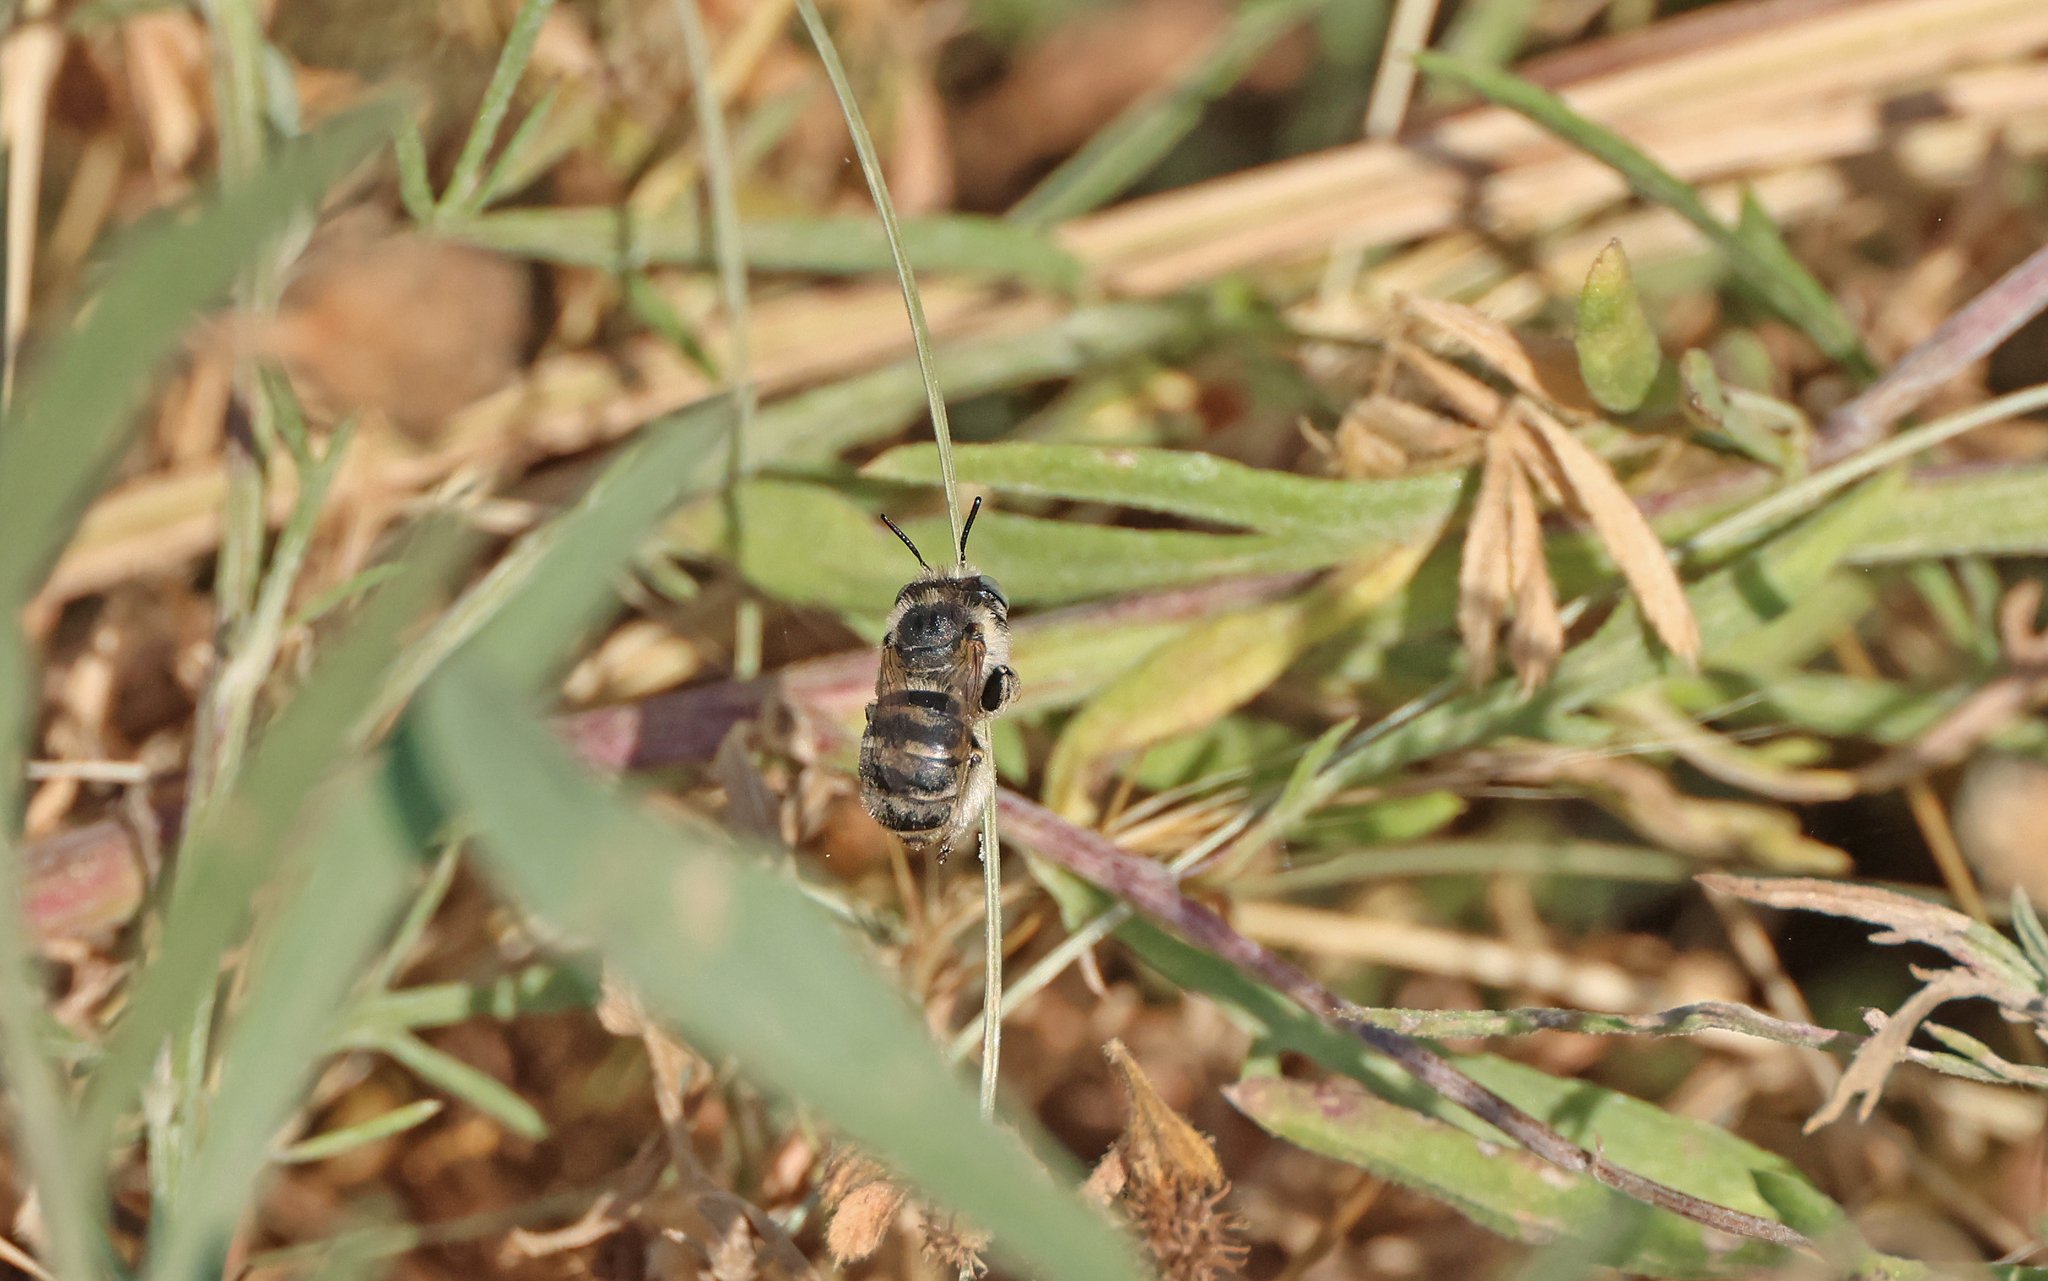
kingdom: Animalia
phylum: Arthropoda
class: Insecta
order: Hymenoptera
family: Apidae
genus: Anthophora
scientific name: Anthophora bimaculata
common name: Green-eyed flower bee
